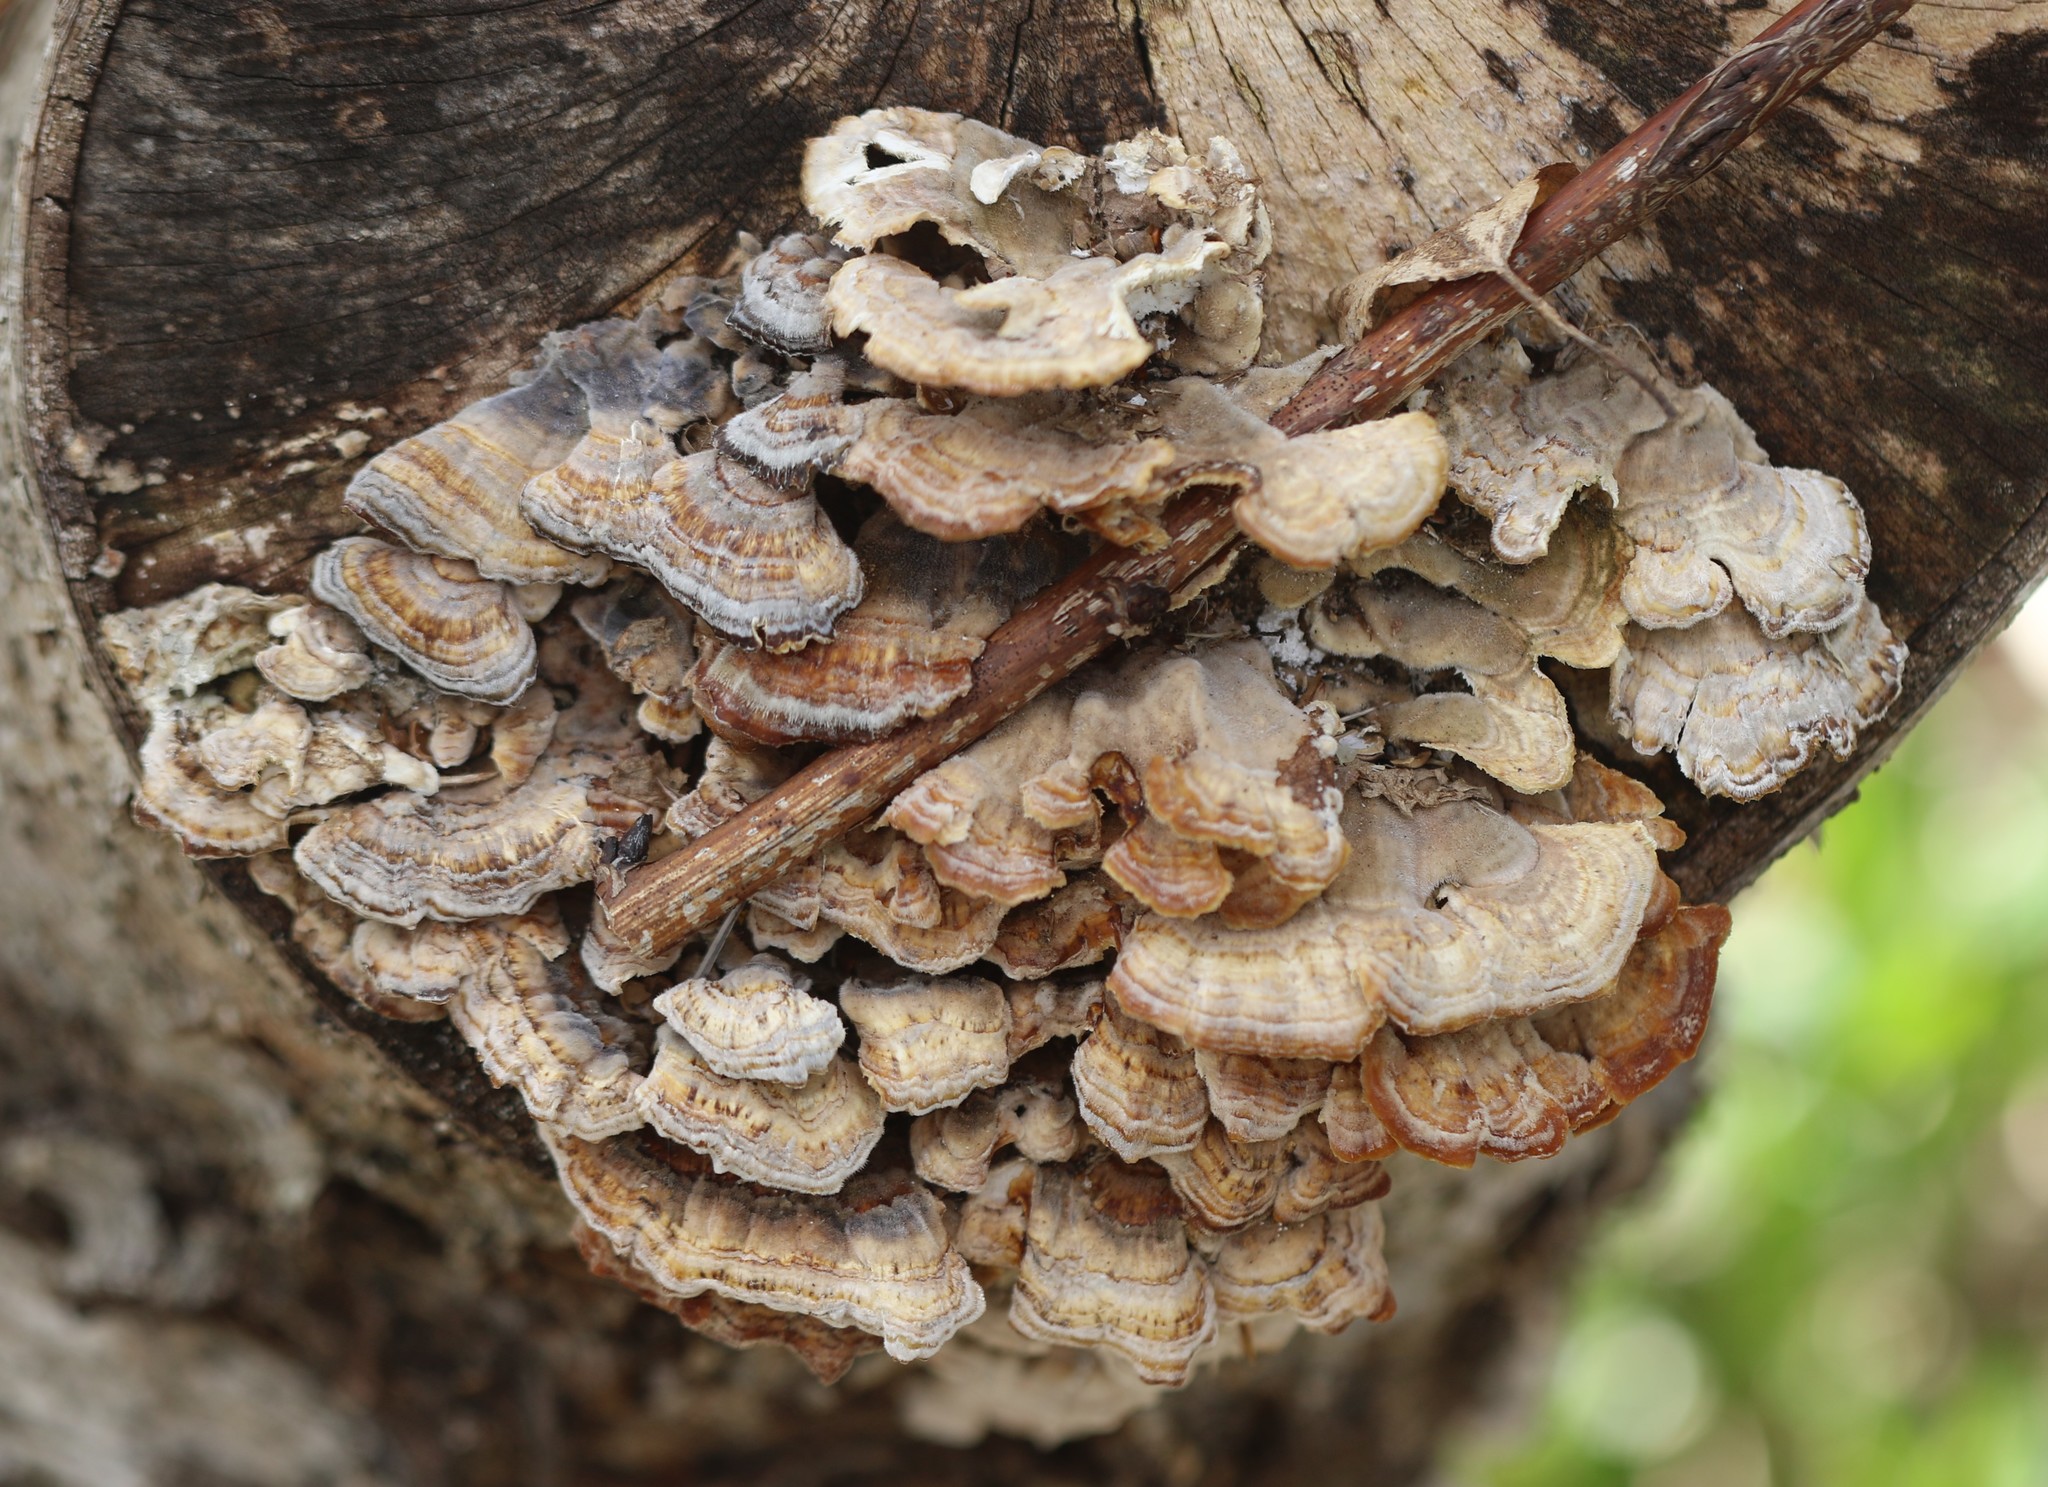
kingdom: Fungi
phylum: Basidiomycota
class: Agaricomycetes
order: Polyporales
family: Polyporaceae
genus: Trametes
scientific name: Trametes versicolor
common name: Turkeytail
